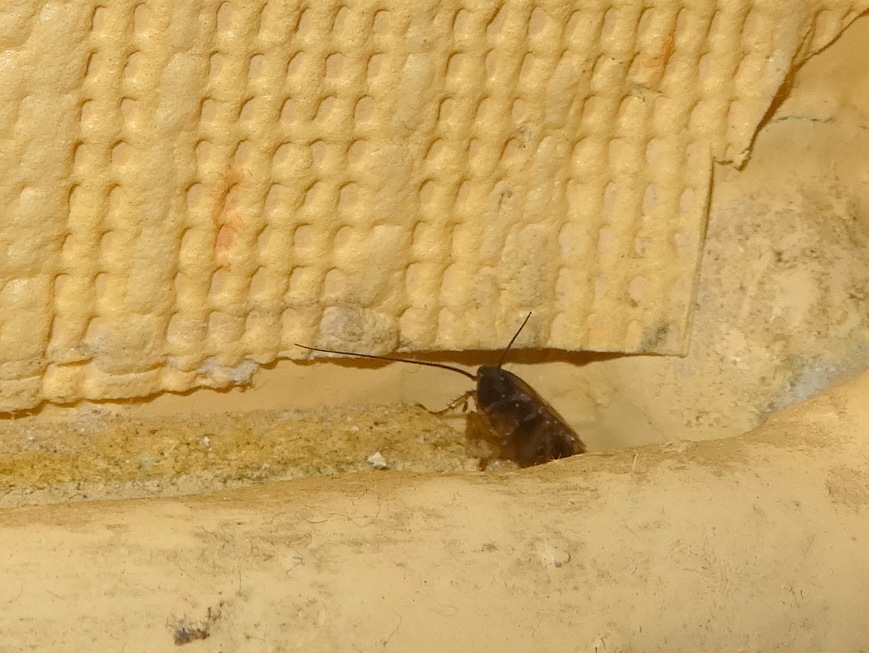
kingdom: Animalia
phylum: Arthropoda
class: Insecta
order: Blattodea
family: Ectobiidae
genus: Blattella
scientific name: Blattella germanica
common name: German cockroach
